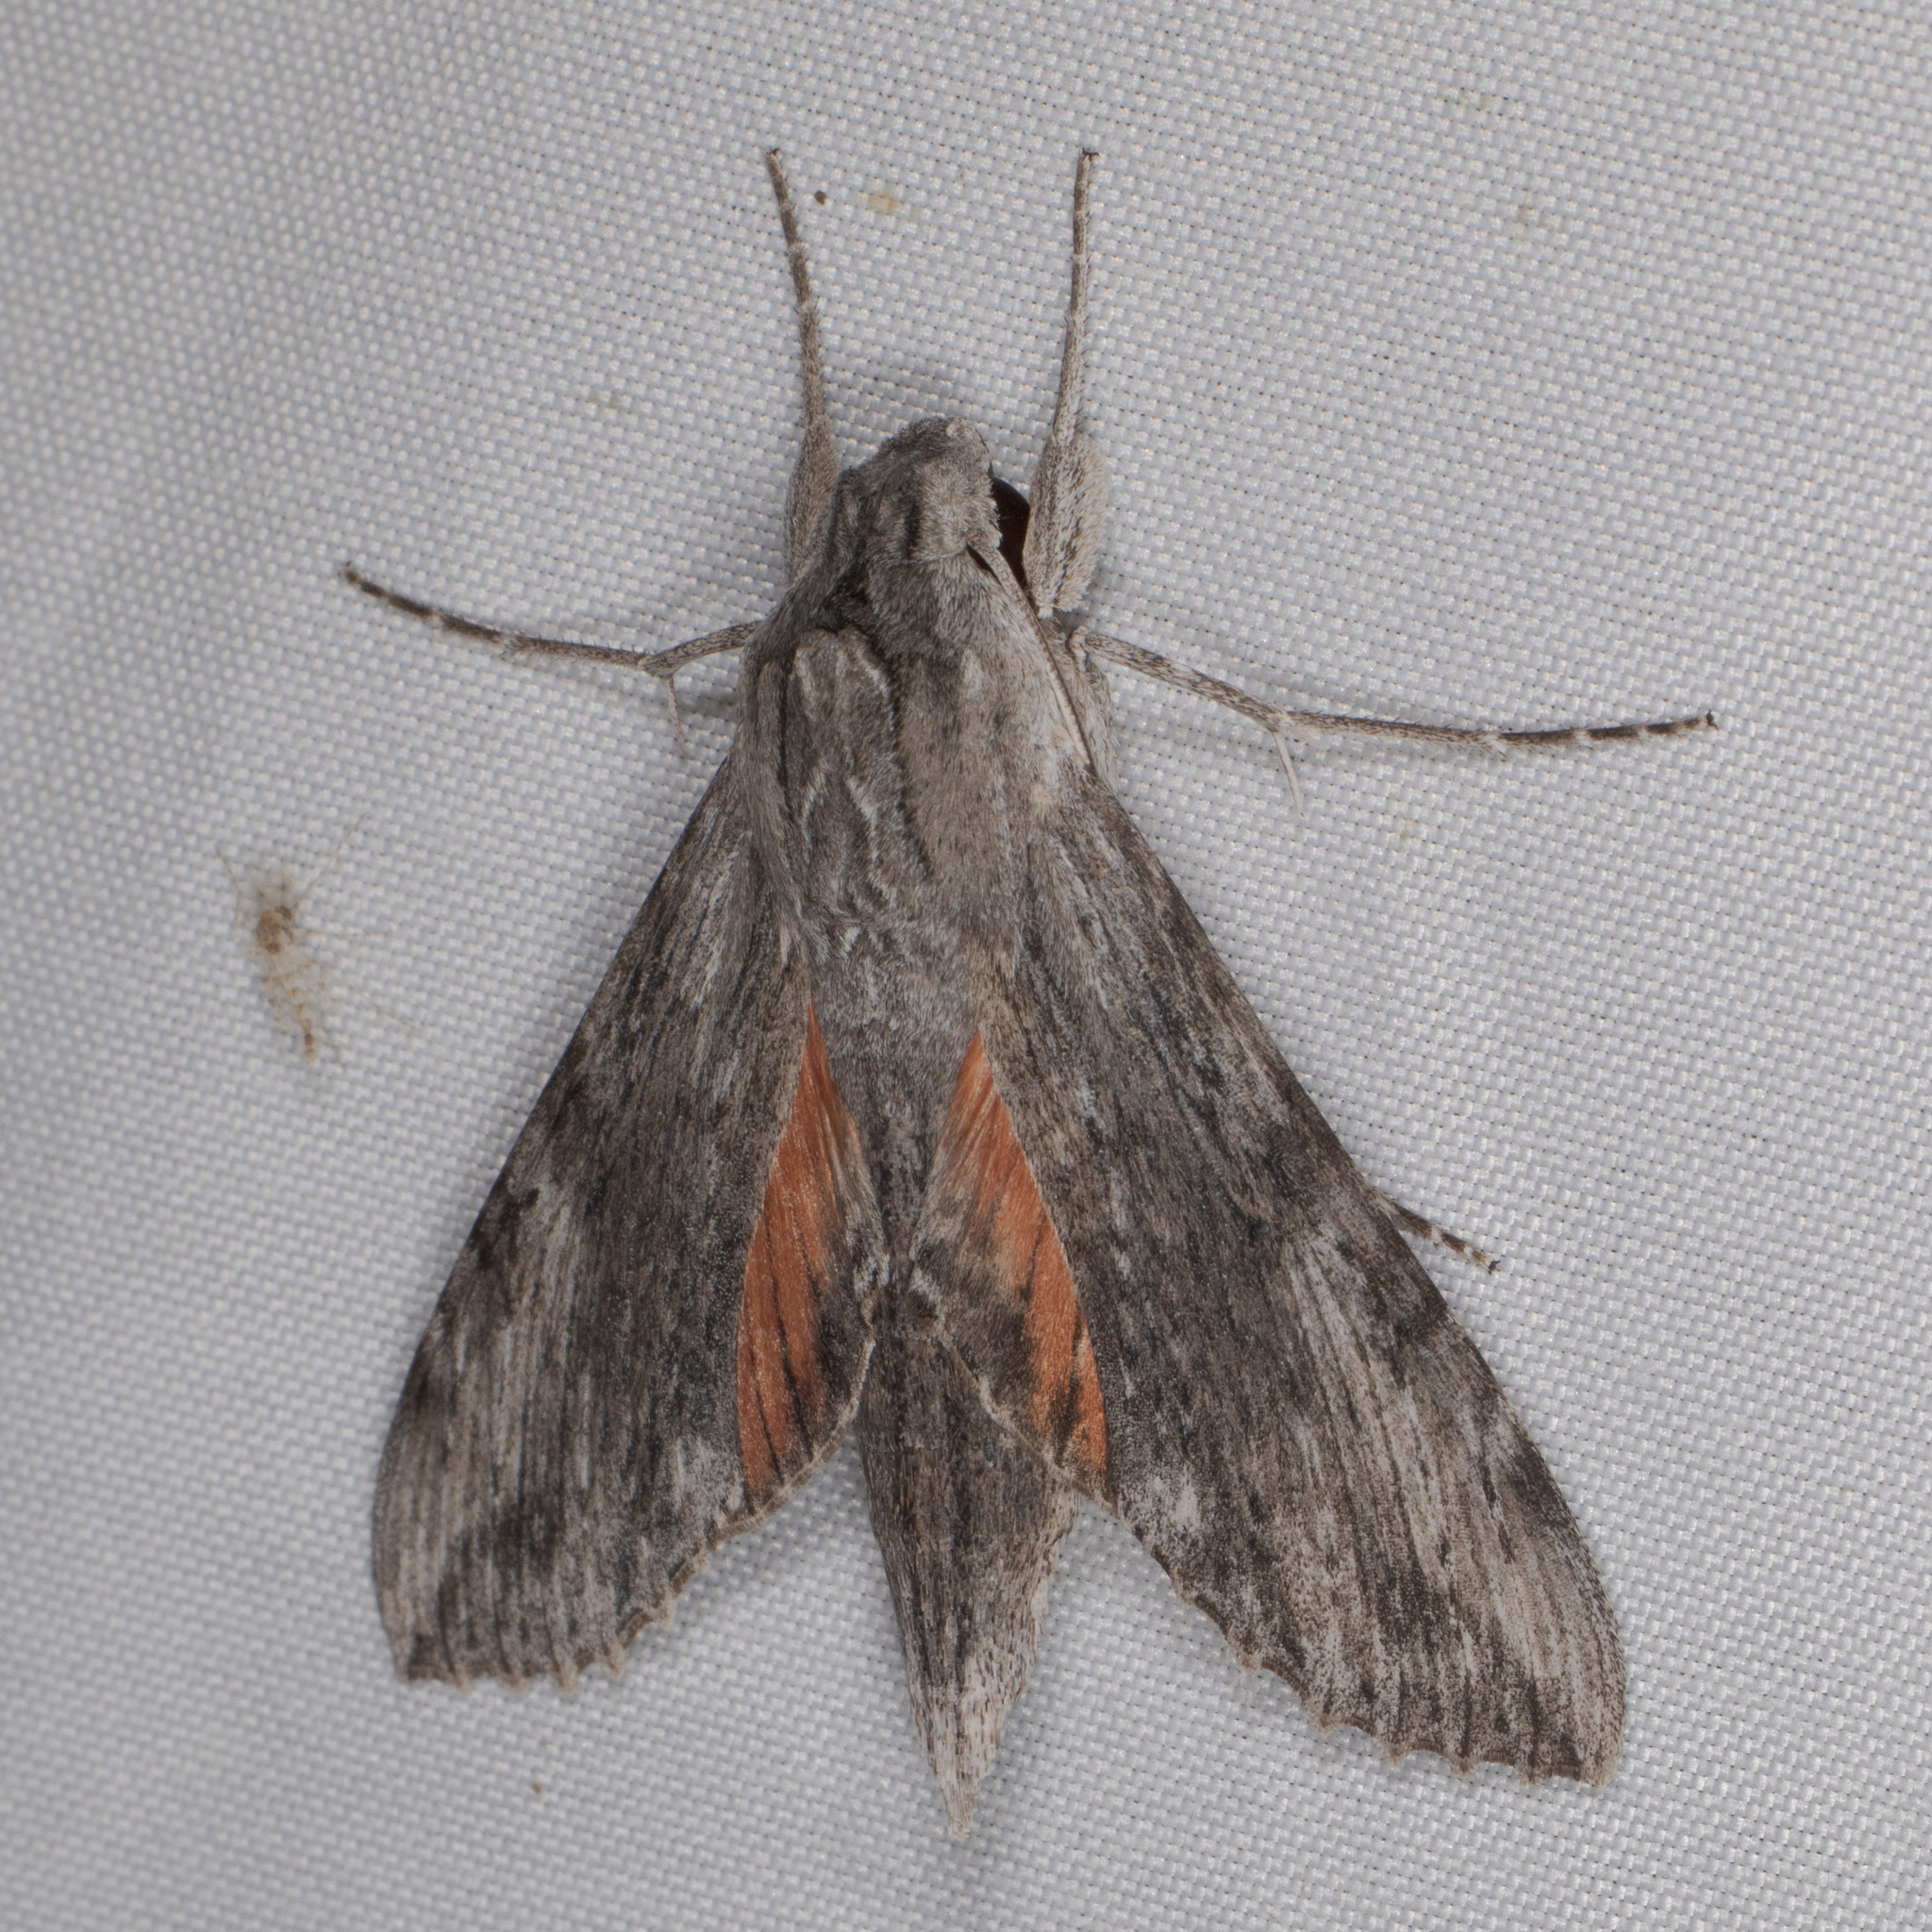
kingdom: Animalia
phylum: Arthropoda
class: Insecta
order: Lepidoptera
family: Sphingidae
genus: Erinnyis
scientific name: Erinnyis obscura
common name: Obscure sphinx
